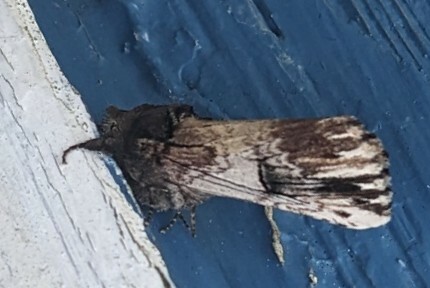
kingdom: Animalia
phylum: Arthropoda
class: Insecta
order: Lepidoptera
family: Notodontidae
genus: Schizura
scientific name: Schizura badia
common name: Chestnut schizura
